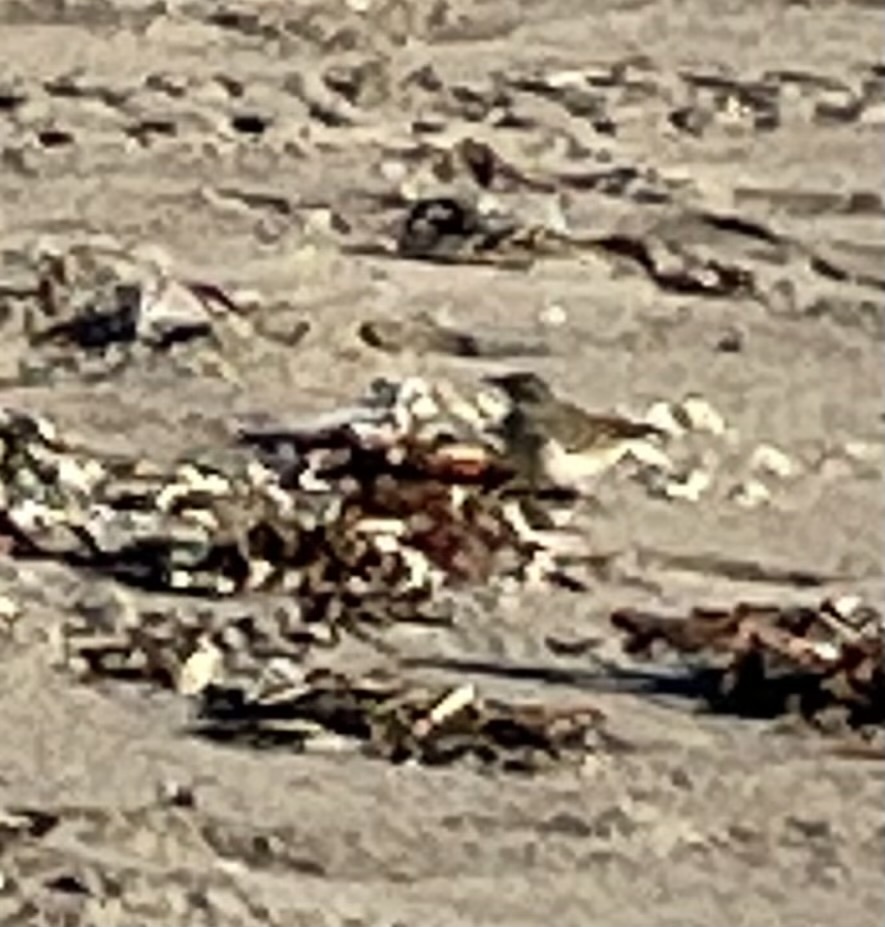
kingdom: Animalia
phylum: Chordata
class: Aves
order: Passeriformes
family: Motacillidae
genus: Anthus
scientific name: Anthus rubescens
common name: Buff-bellied pipit
